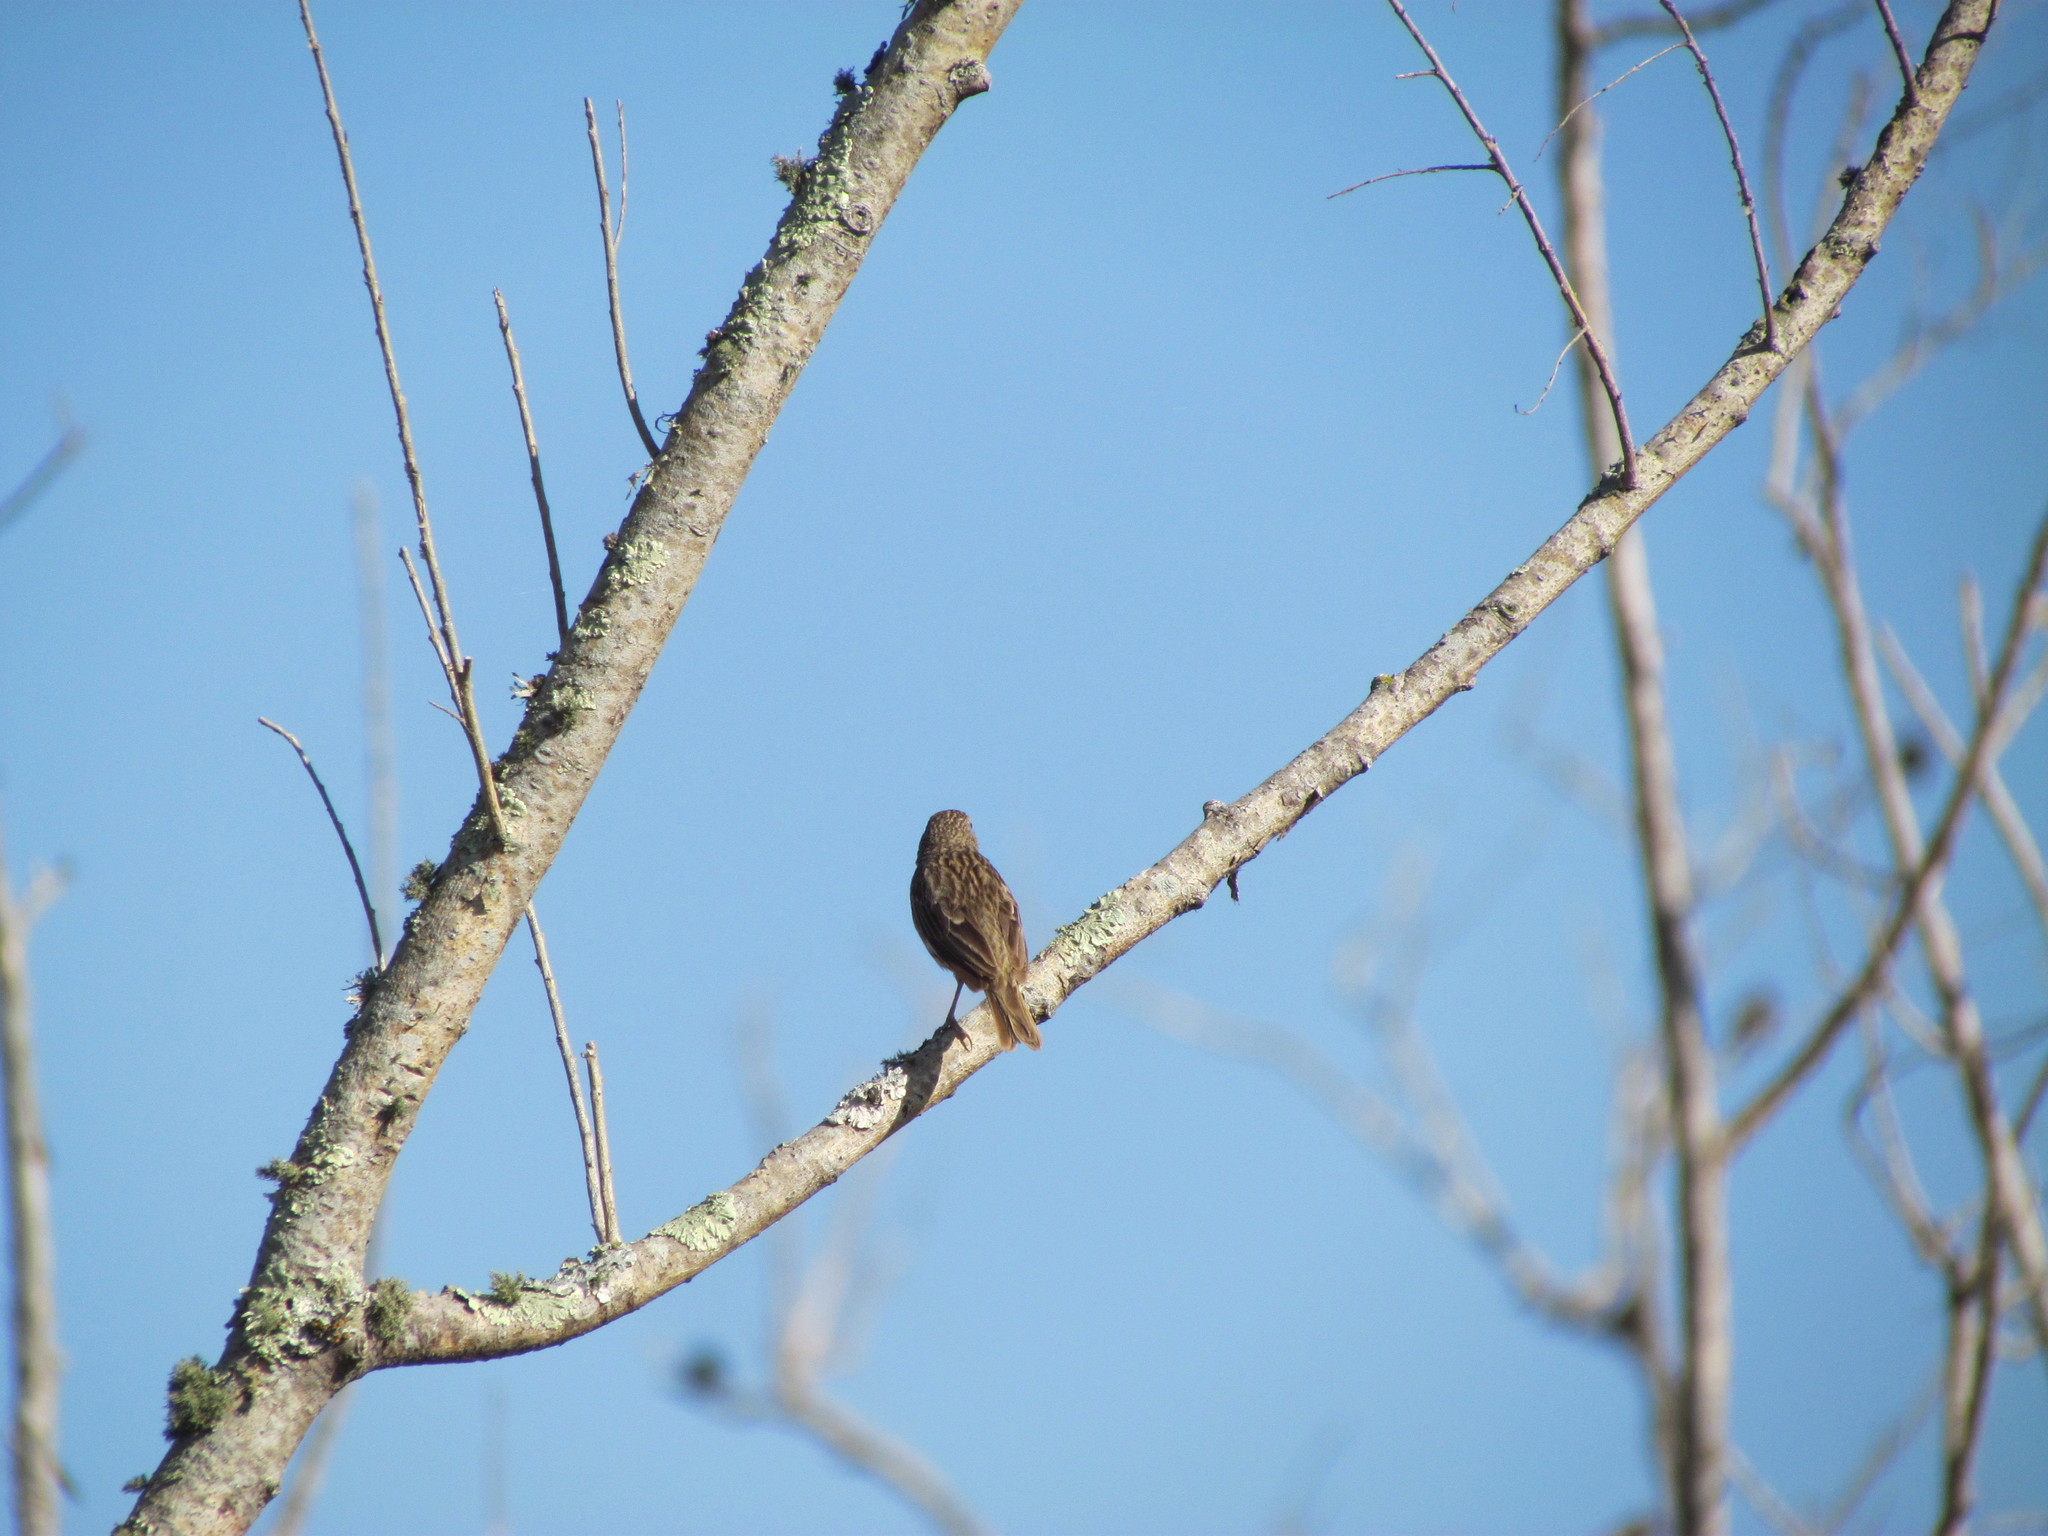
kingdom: Animalia
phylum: Chordata
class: Aves
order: Passeriformes
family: Thraupidae
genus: Sicalis
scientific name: Sicalis flaveola
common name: Saffron finch
